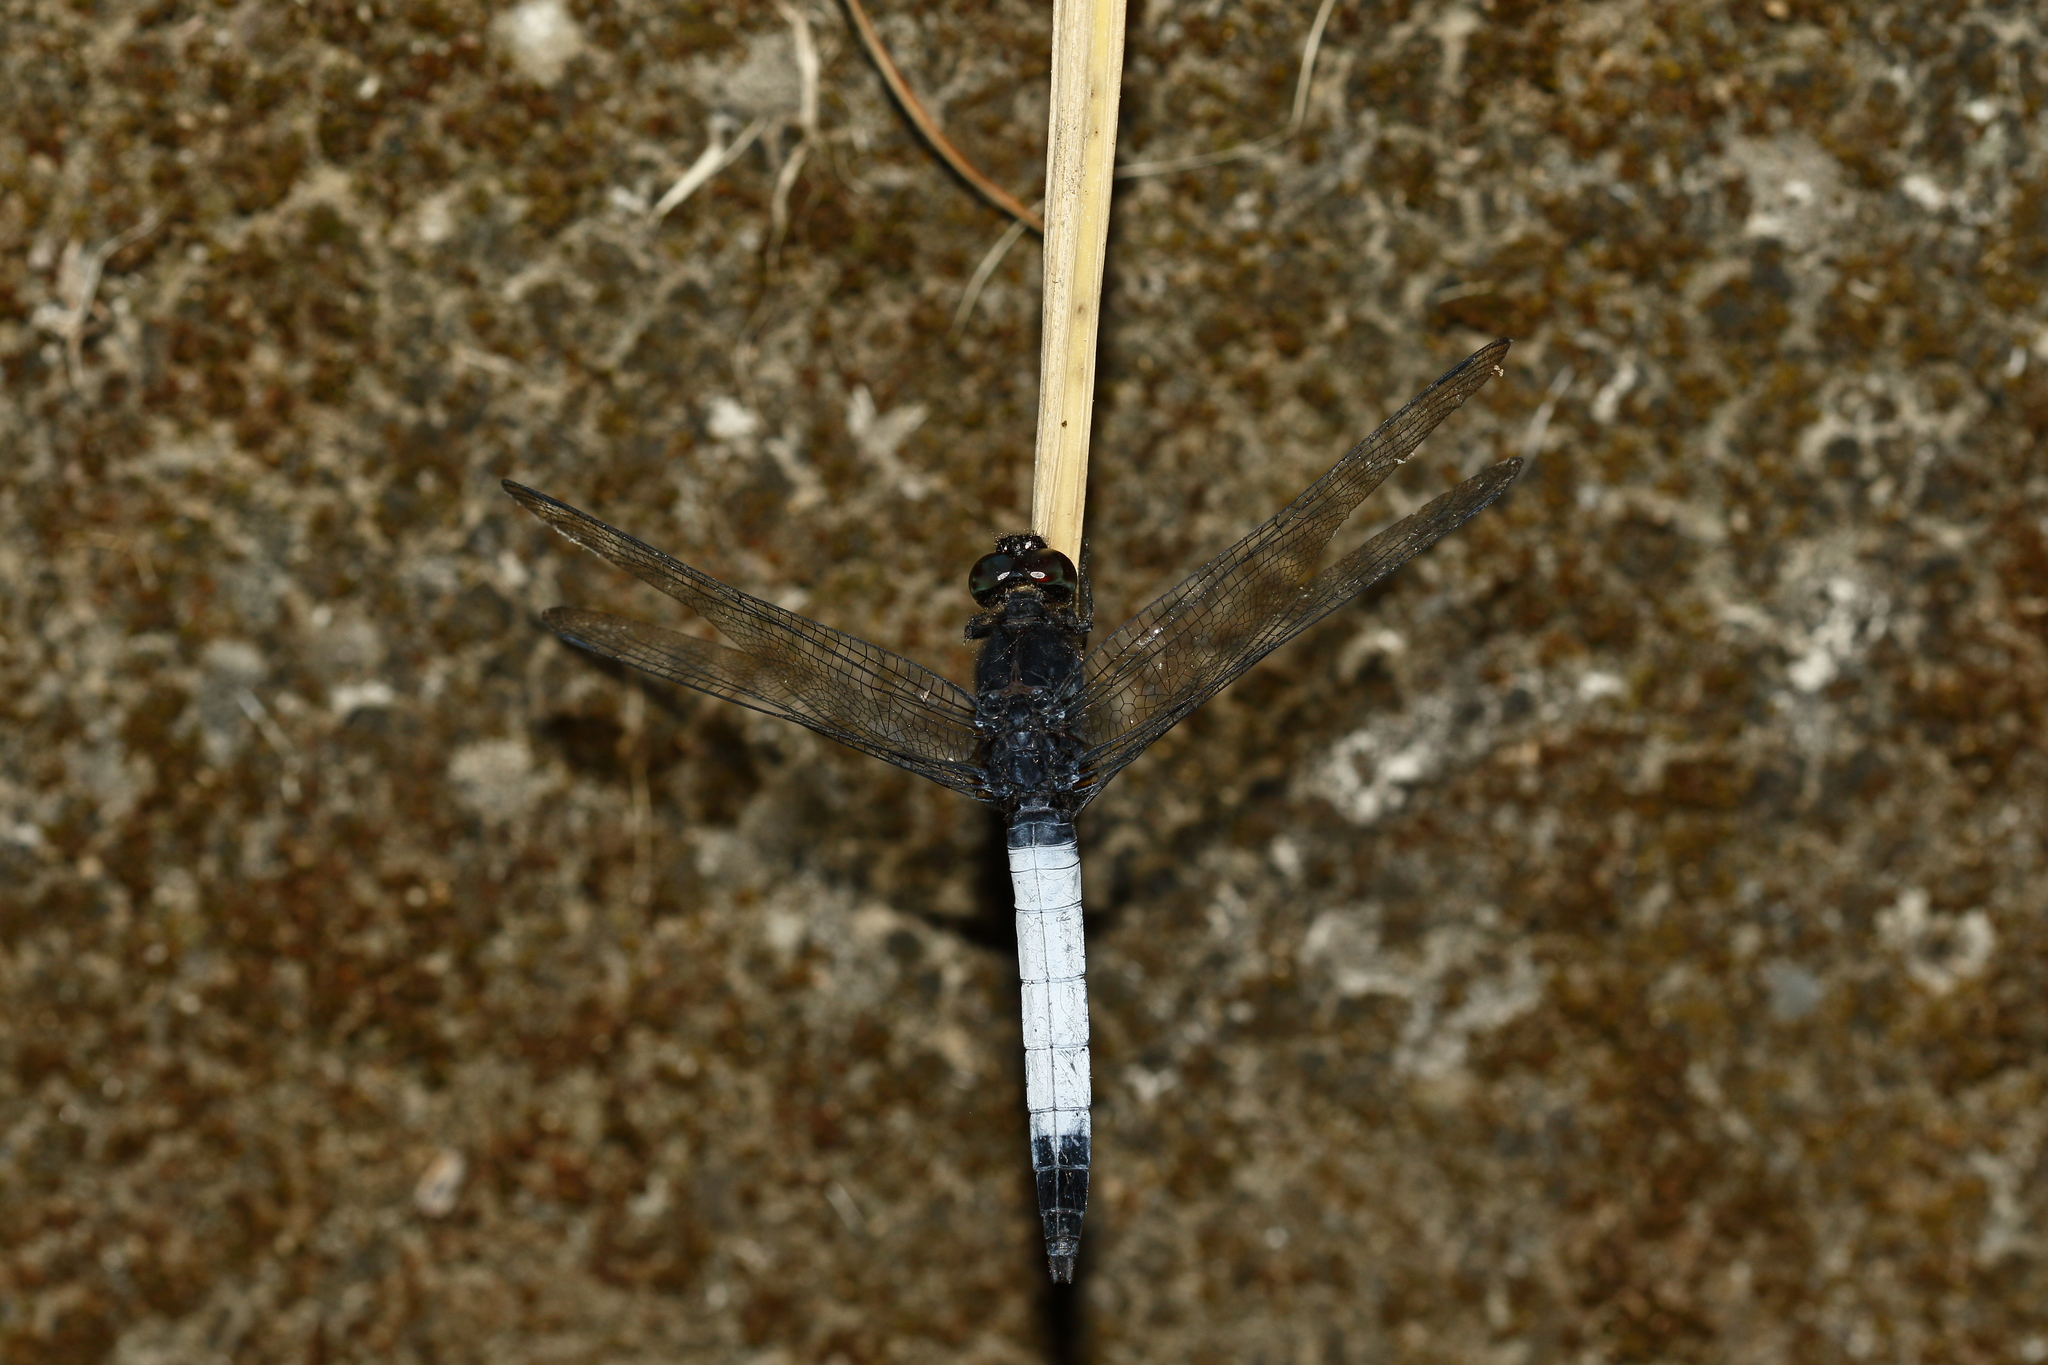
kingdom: Animalia
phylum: Arthropoda
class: Insecta
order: Odonata
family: Libellulidae
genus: Orthetrum
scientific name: Orthetrum triangulare
